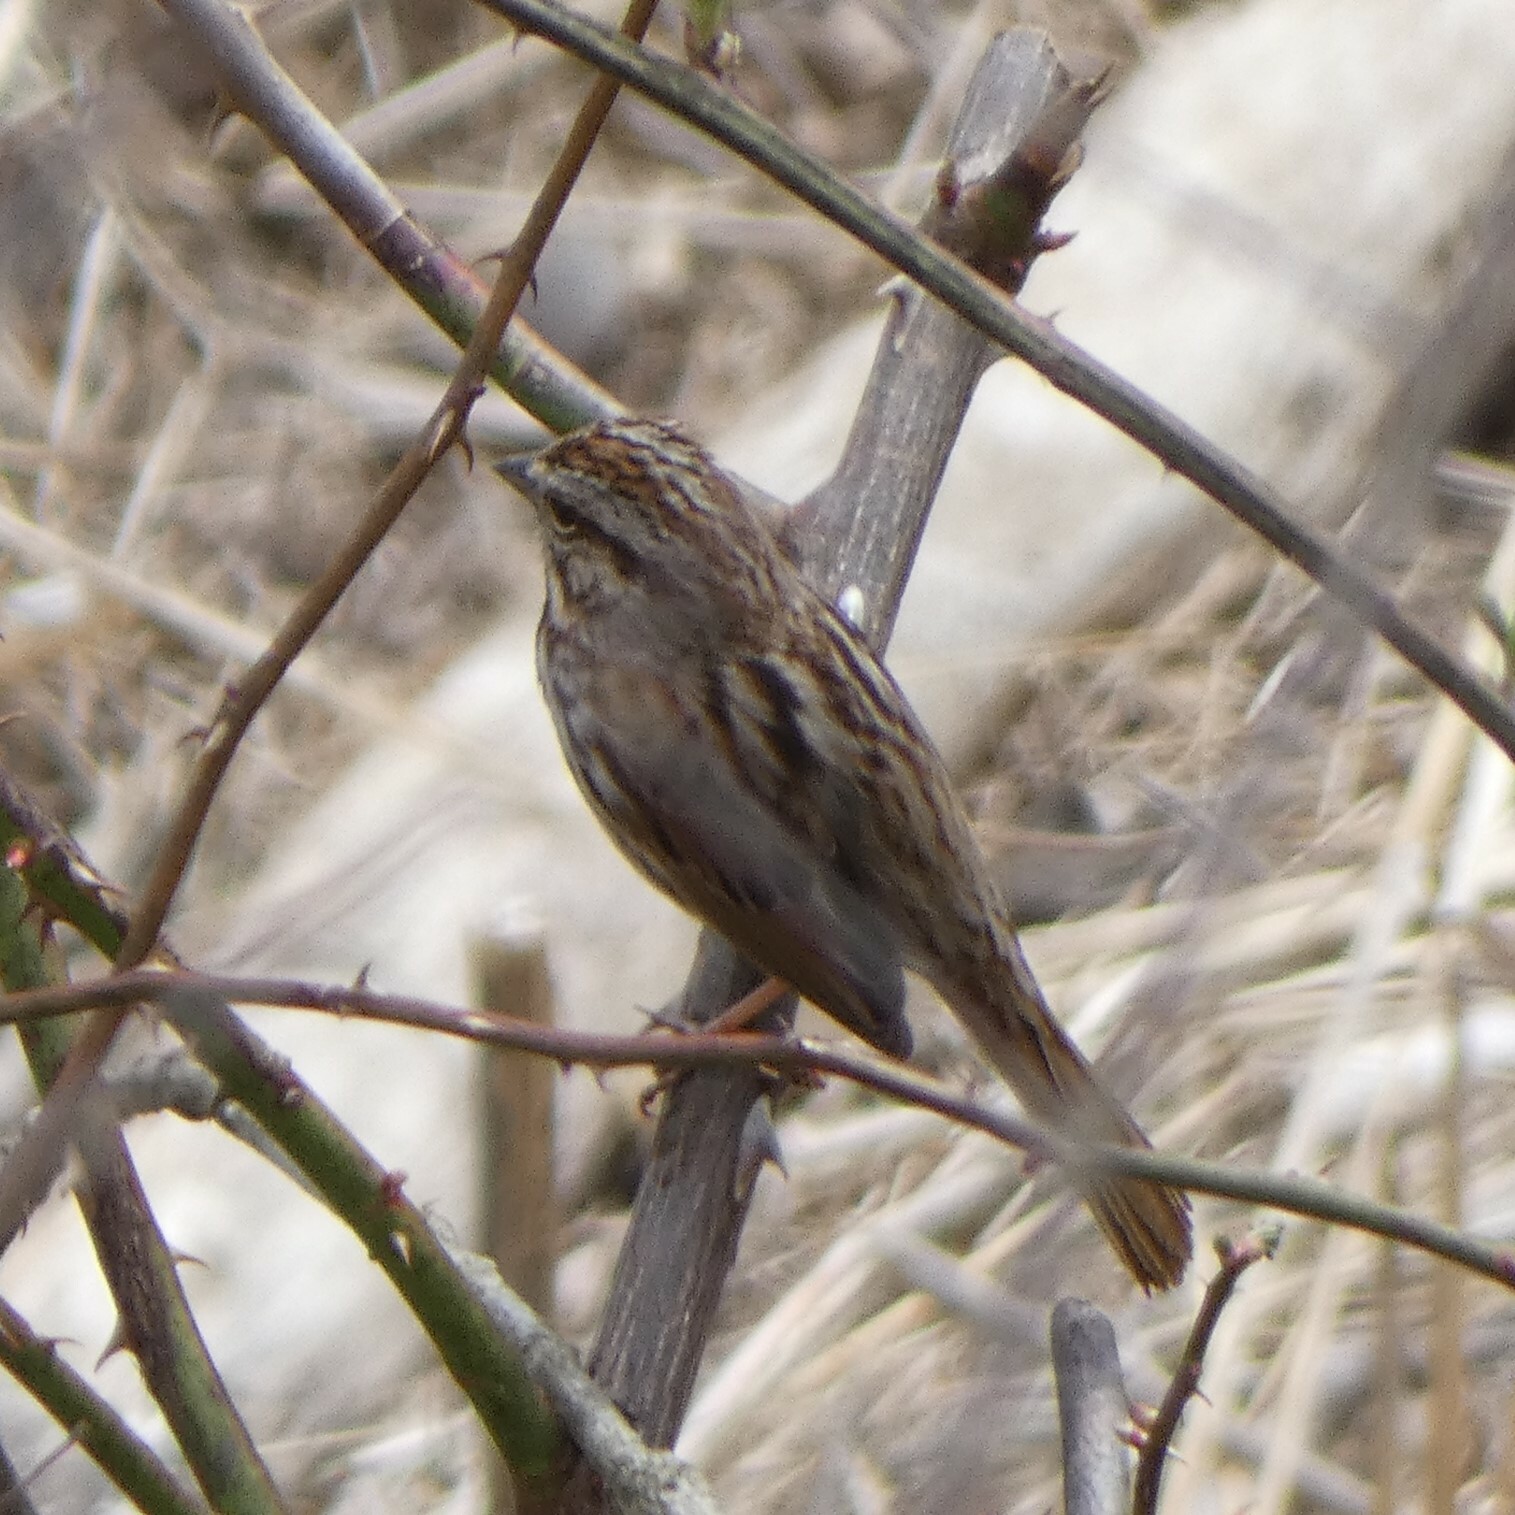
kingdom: Animalia
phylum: Chordata
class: Aves
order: Passeriformes
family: Passerellidae
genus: Melospiza
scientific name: Melospiza melodia
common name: Song sparrow
